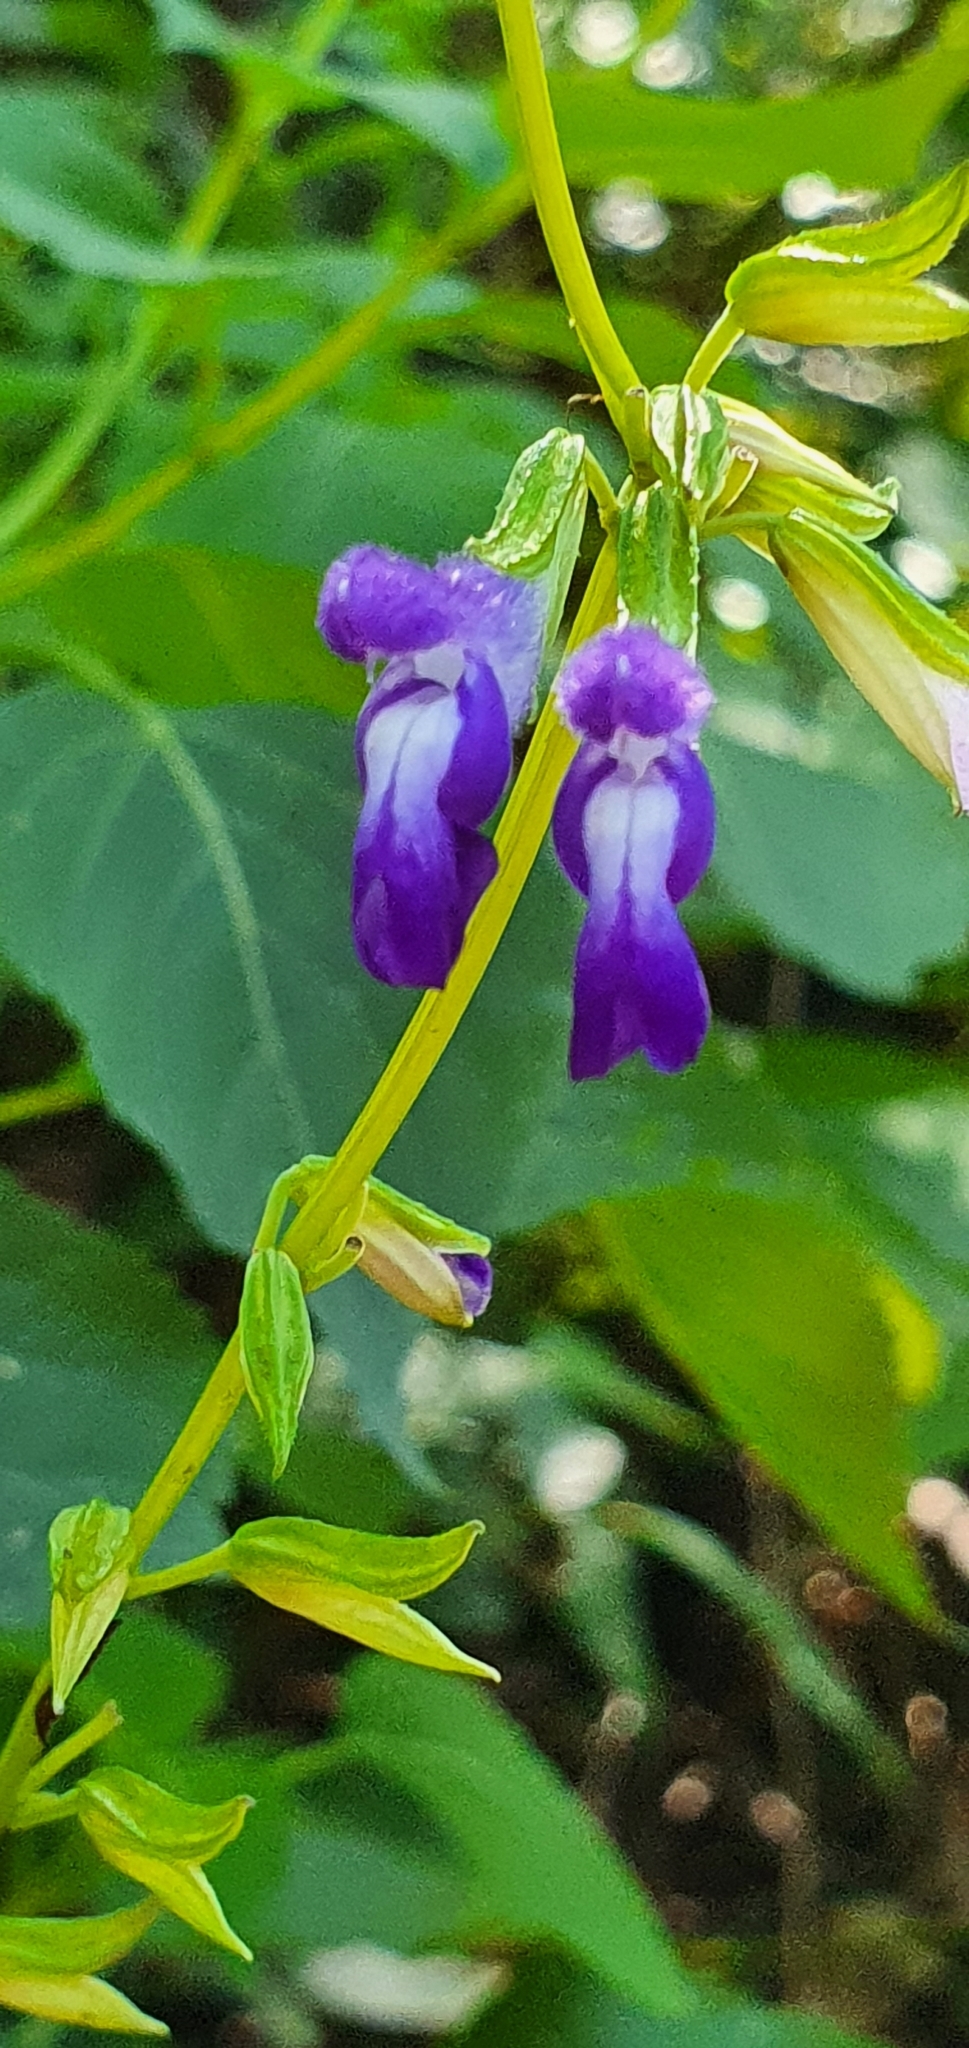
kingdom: Plantae
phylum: Tracheophyta
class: Magnoliopsida
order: Lamiales
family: Lamiaceae
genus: Salvia
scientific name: Salvia caudata
